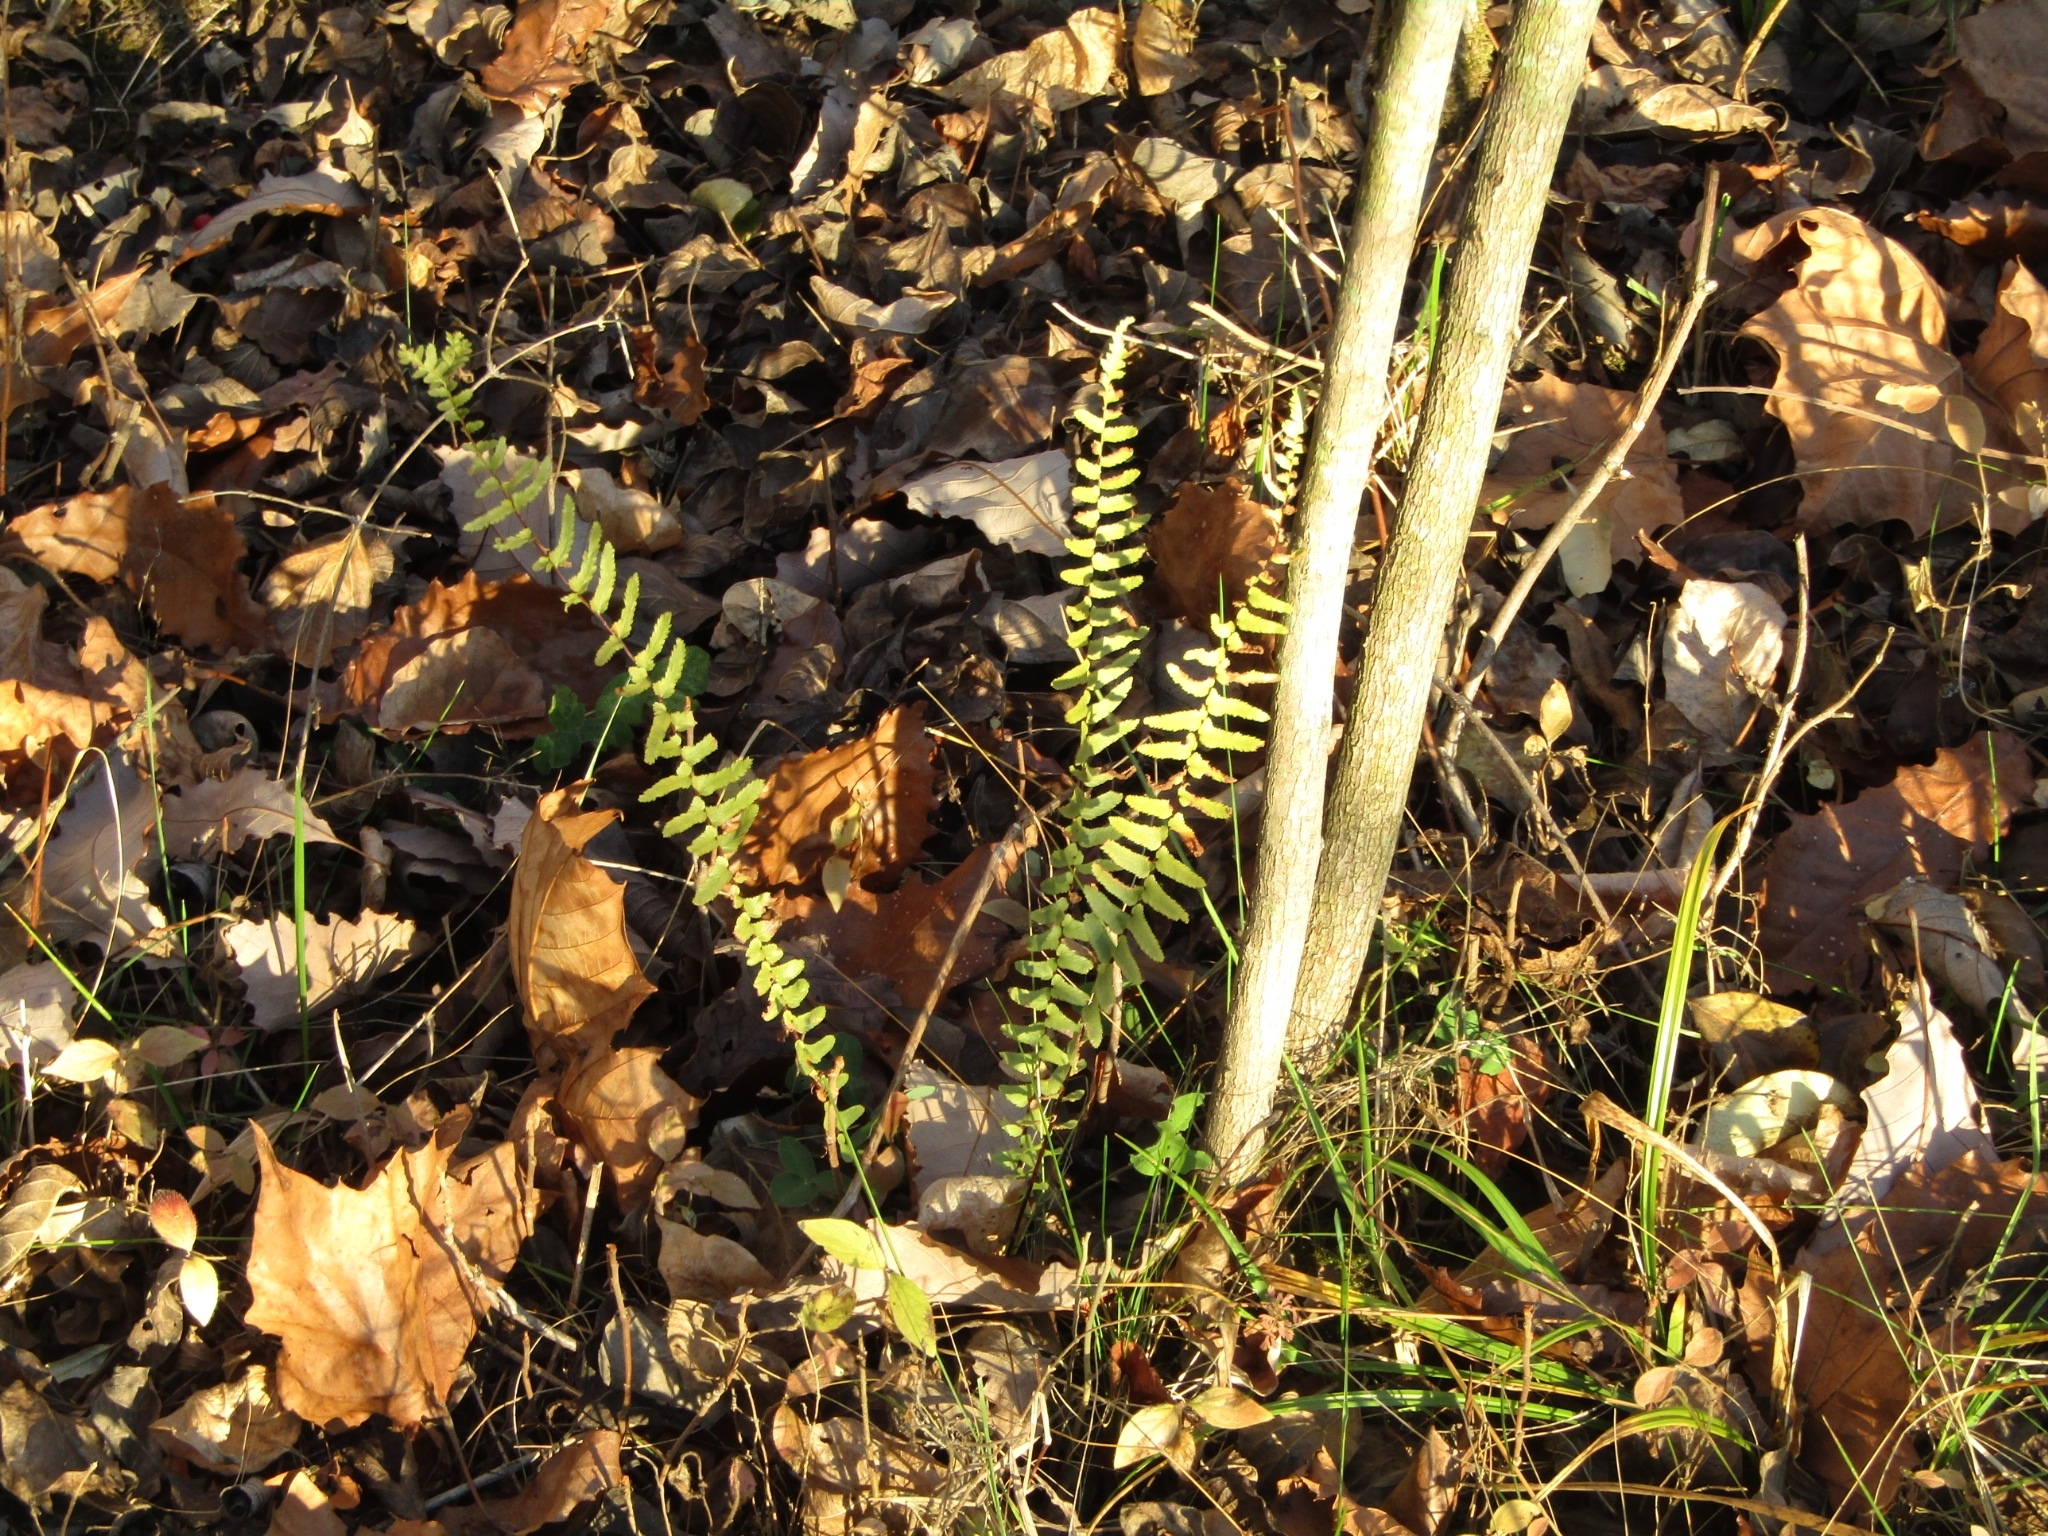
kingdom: Plantae
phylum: Tracheophyta
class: Polypodiopsida
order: Polypodiales
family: Aspleniaceae
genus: Asplenium
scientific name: Asplenium platyneuron
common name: Ebony spleenwort
